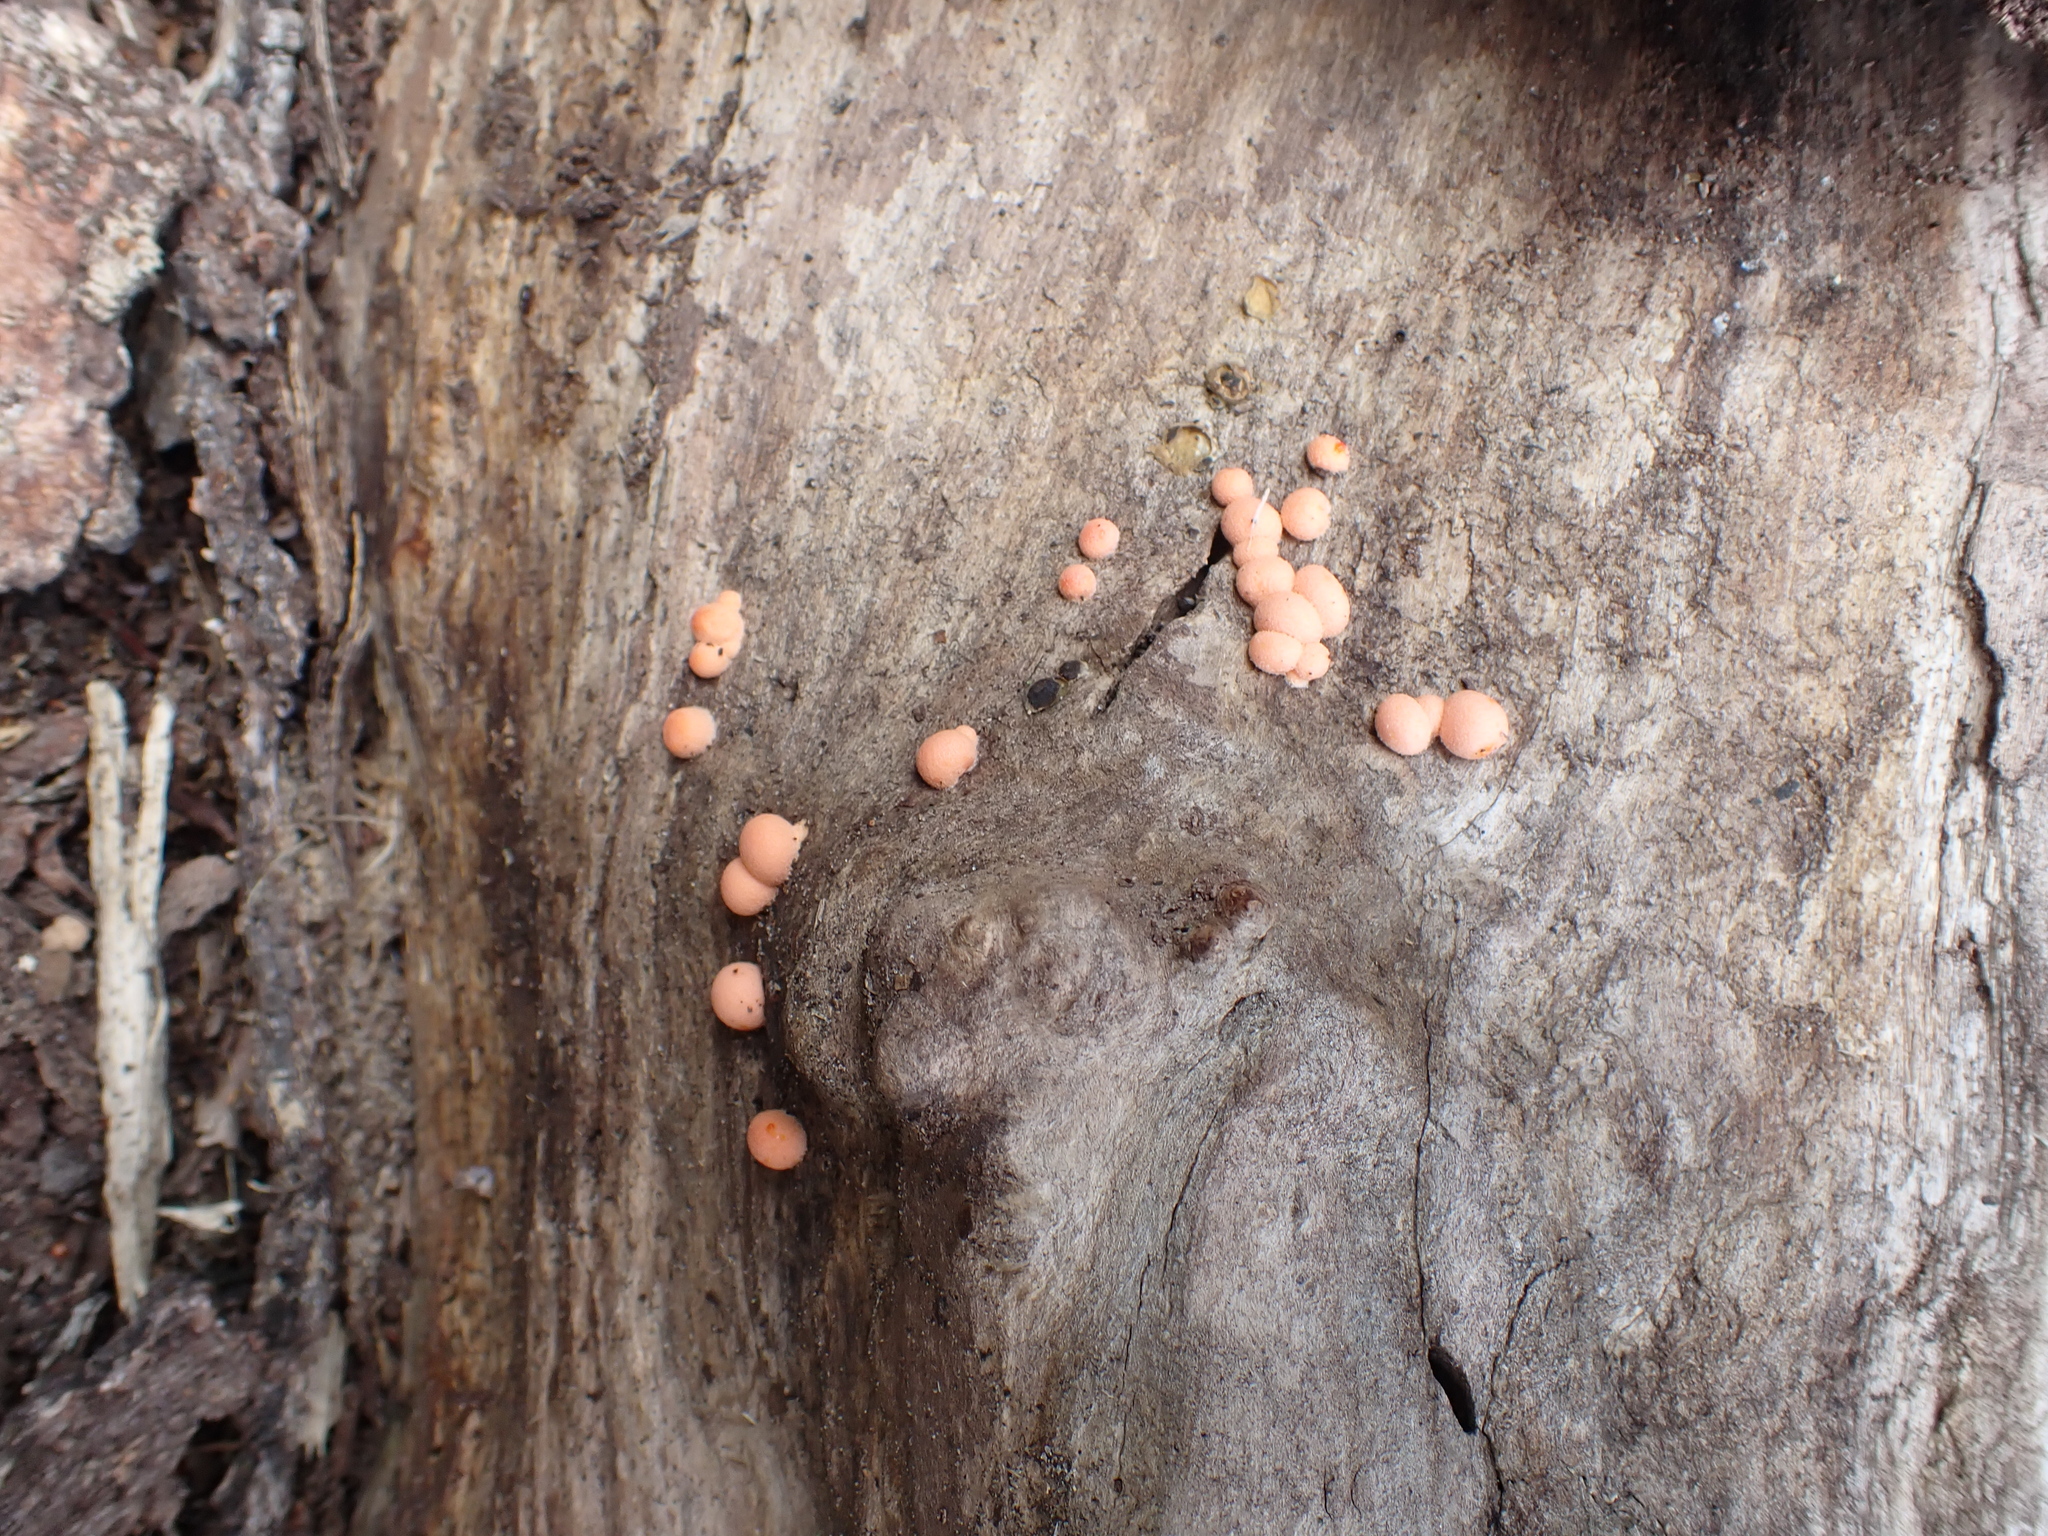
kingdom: Protozoa
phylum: Mycetozoa
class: Myxomycetes
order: Cribrariales
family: Tubiferaceae
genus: Lycogala
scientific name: Lycogala epidendrum
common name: Wolf's milk
